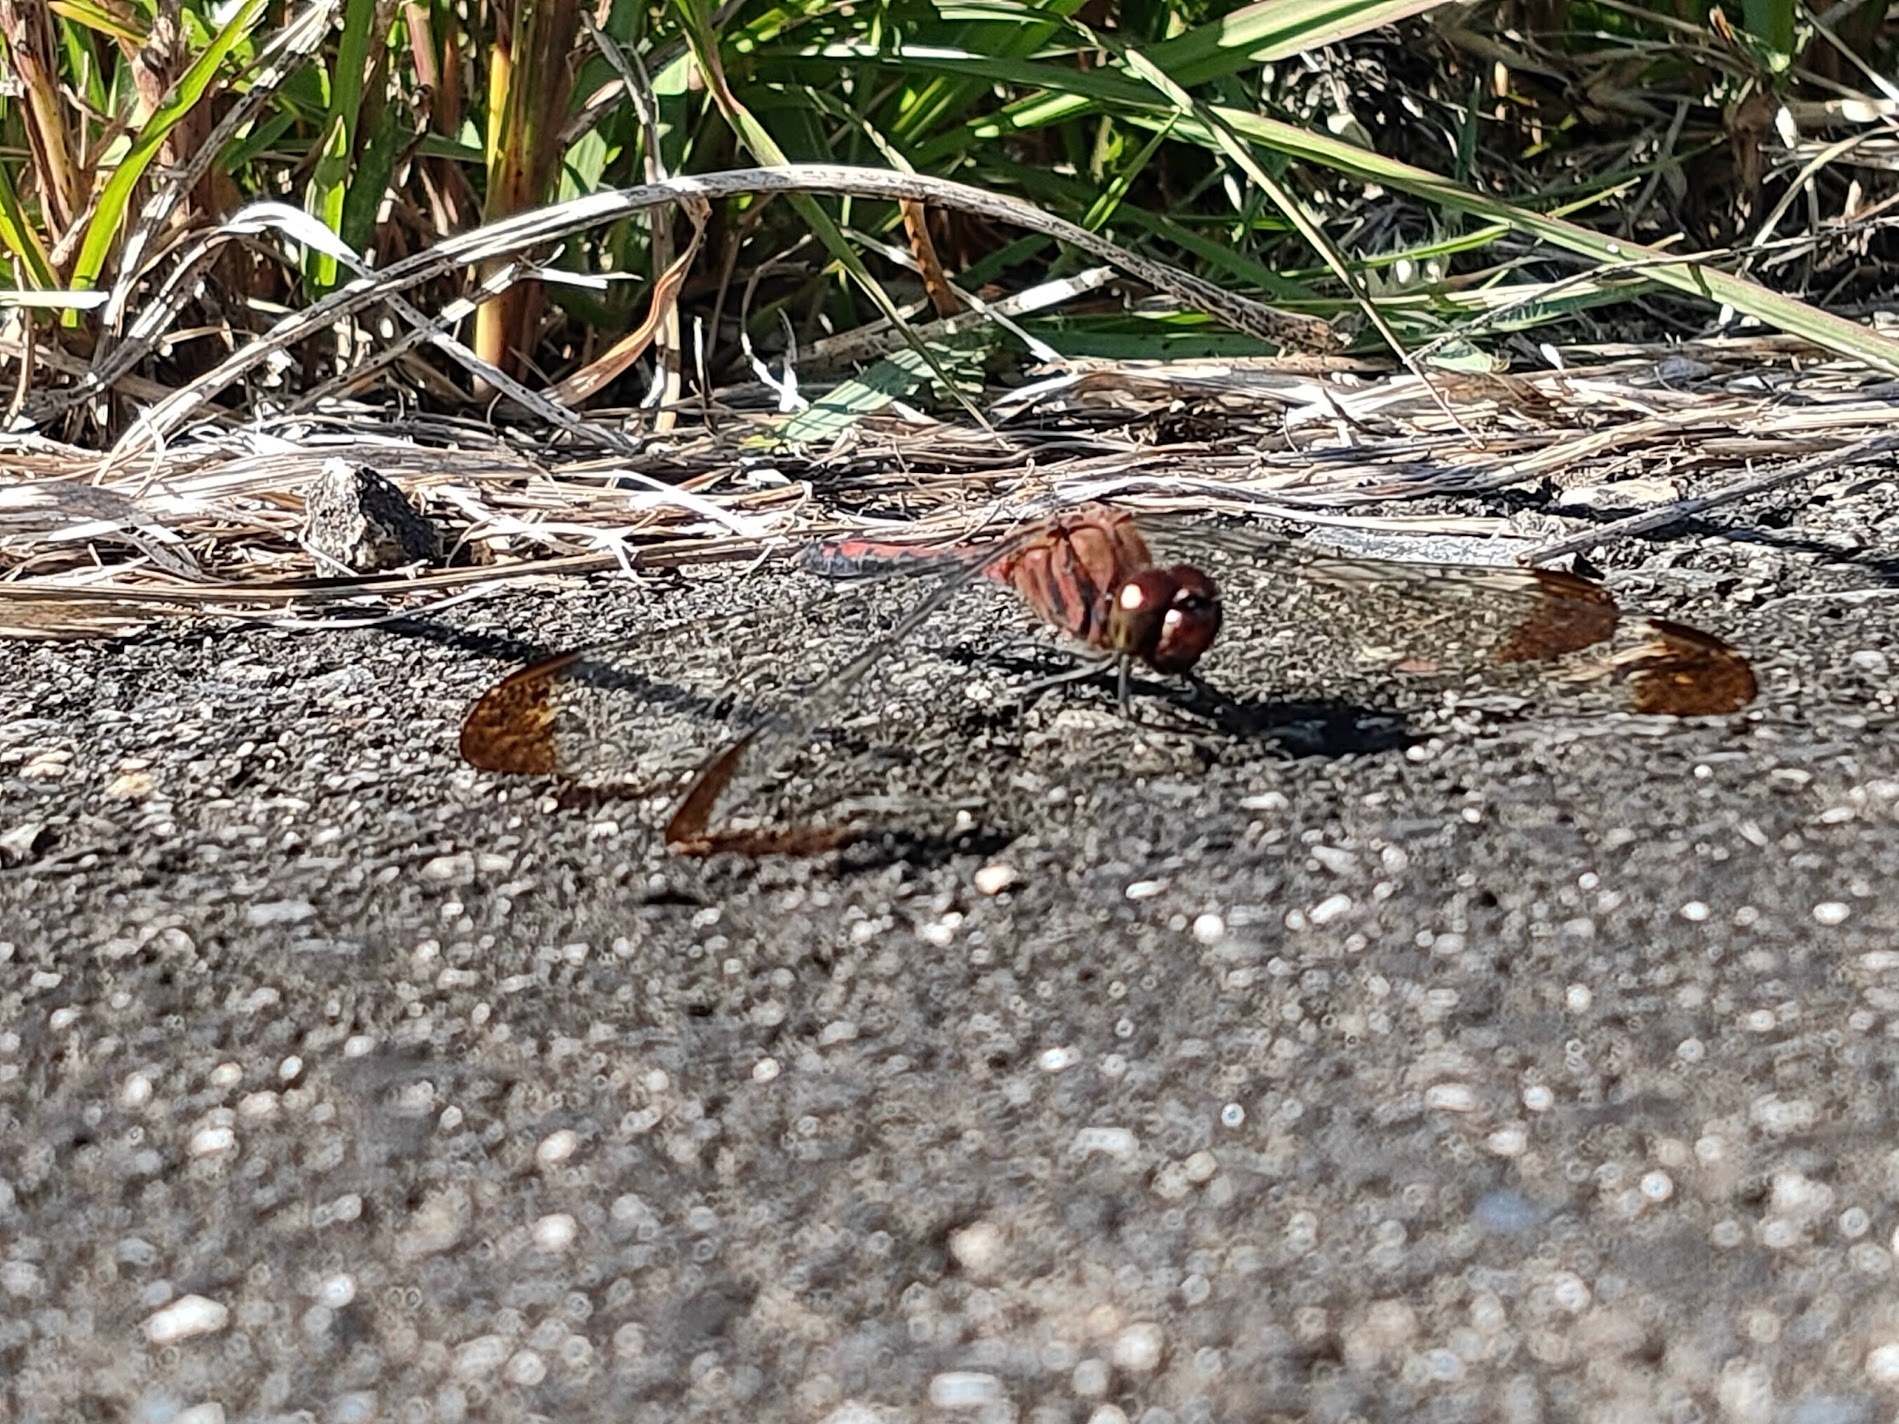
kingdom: Animalia
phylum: Arthropoda
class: Insecta
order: Odonata
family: Libellulidae
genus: Sympetrum
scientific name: Sympetrum infuscatum
